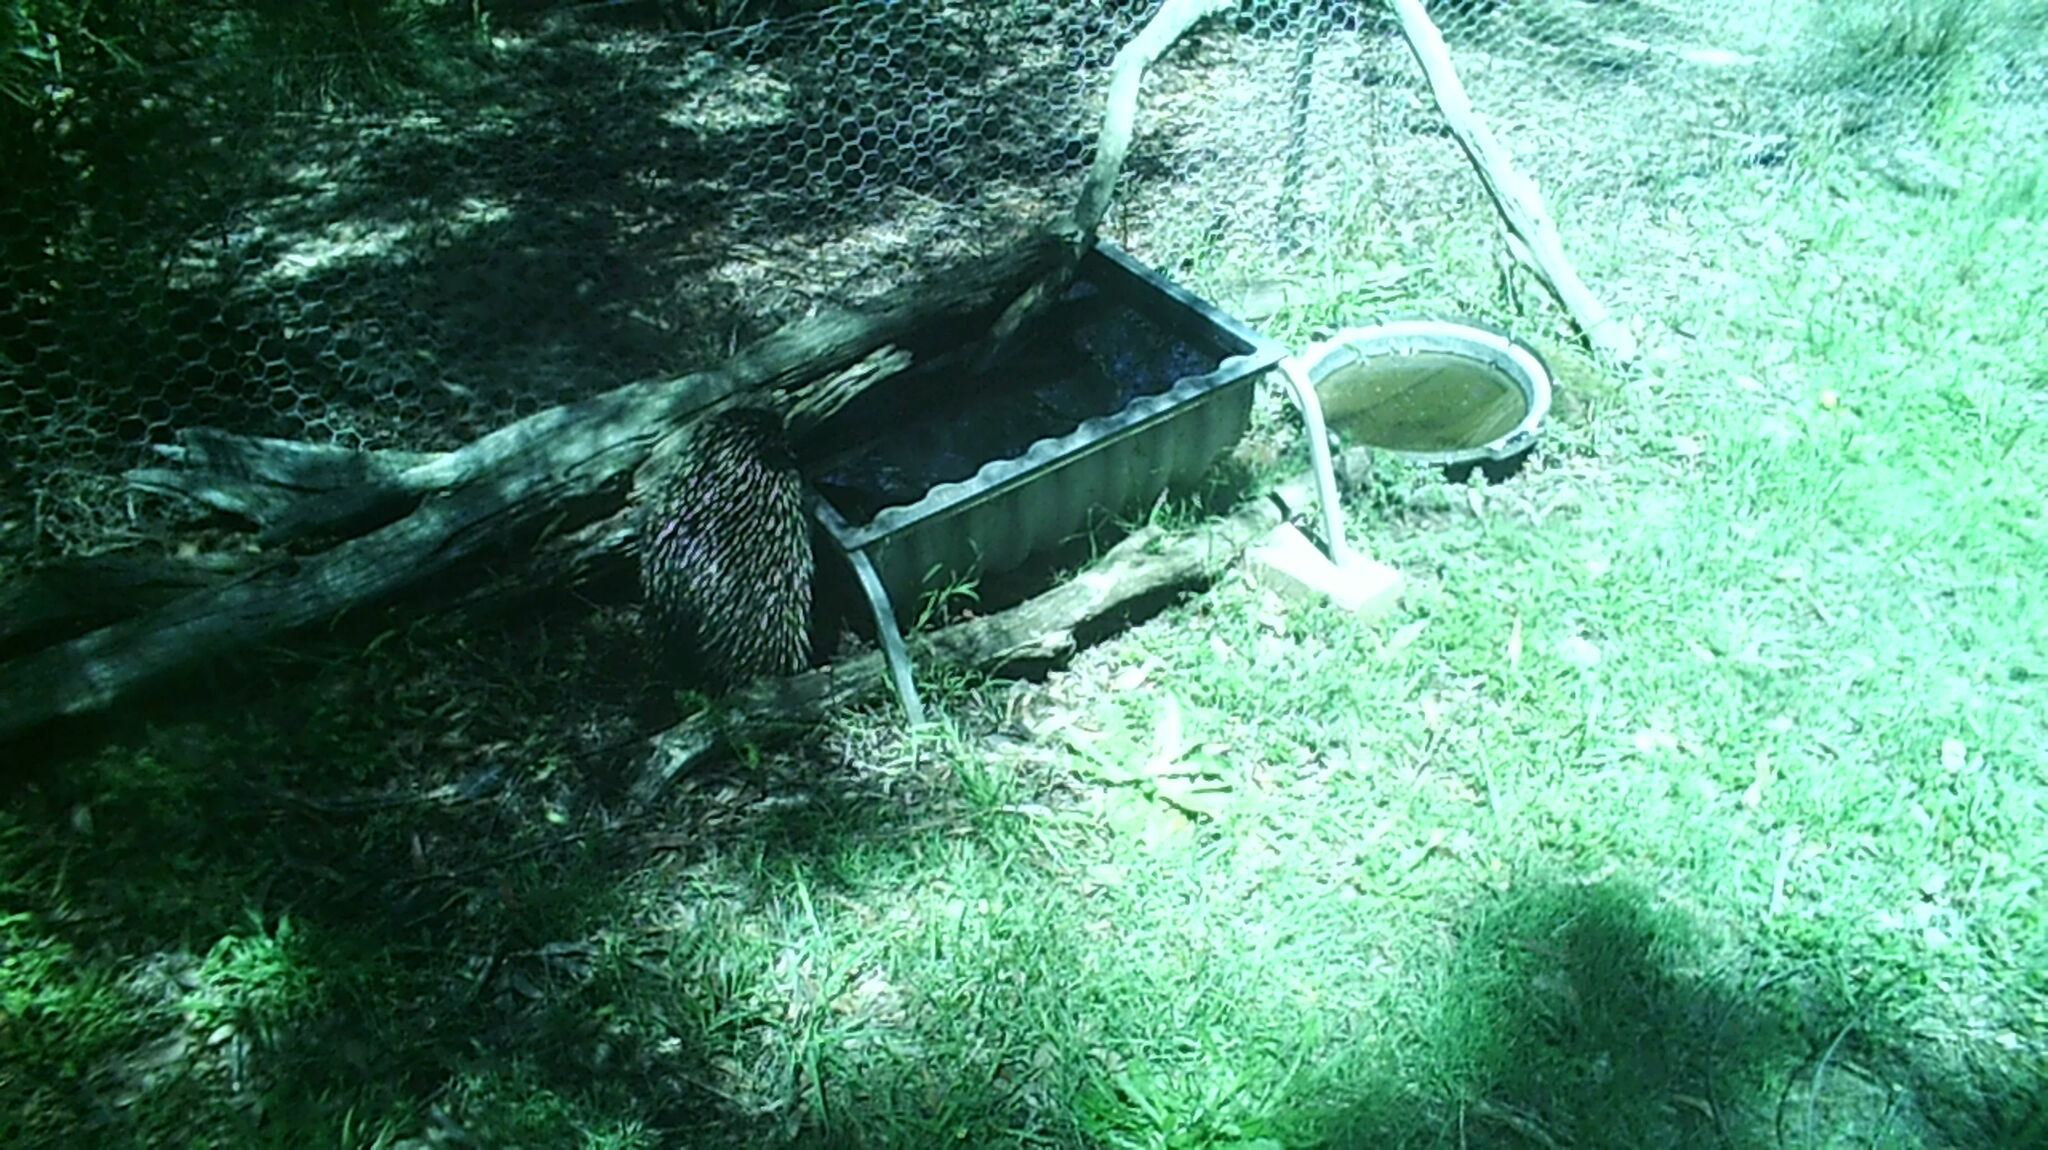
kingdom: Animalia
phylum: Chordata
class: Mammalia
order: Monotremata
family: Tachyglossidae
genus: Tachyglossus
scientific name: Tachyglossus aculeatus
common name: Short-beaked echidna
